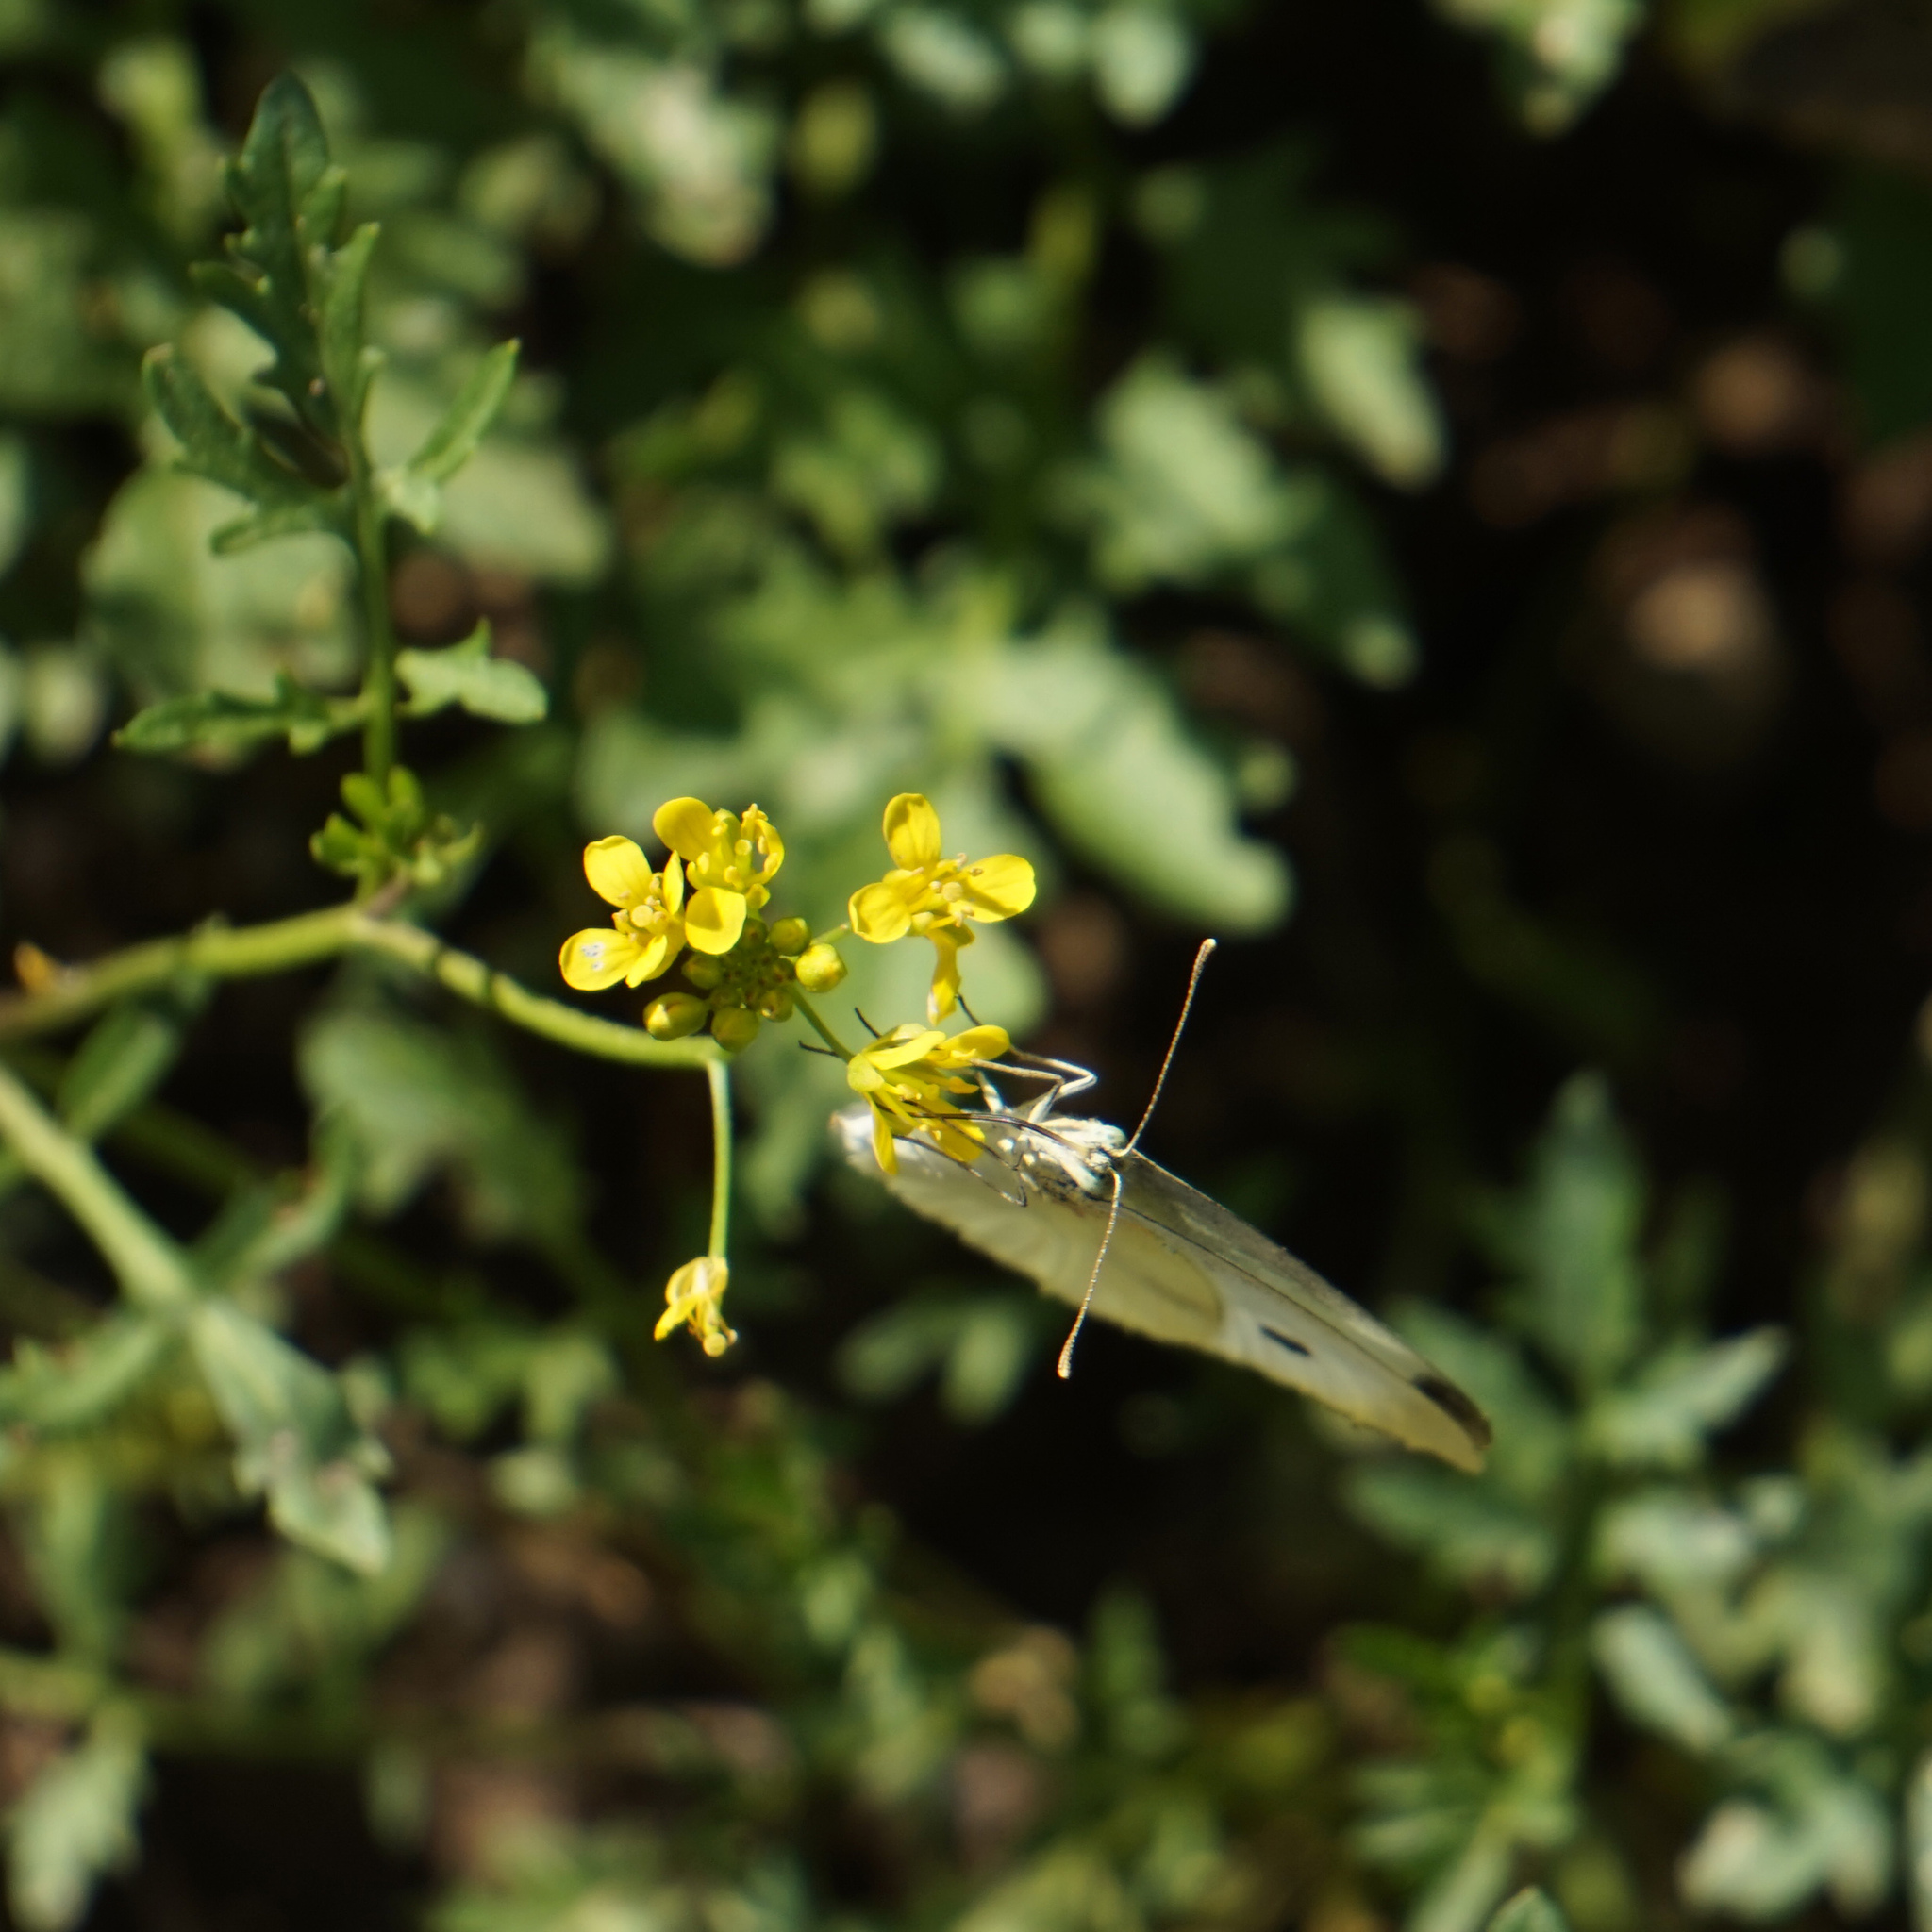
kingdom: Animalia
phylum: Arthropoda
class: Insecta
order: Lepidoptera
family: Pieridae
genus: Pieris
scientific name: Pieris rapae
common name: Small white
